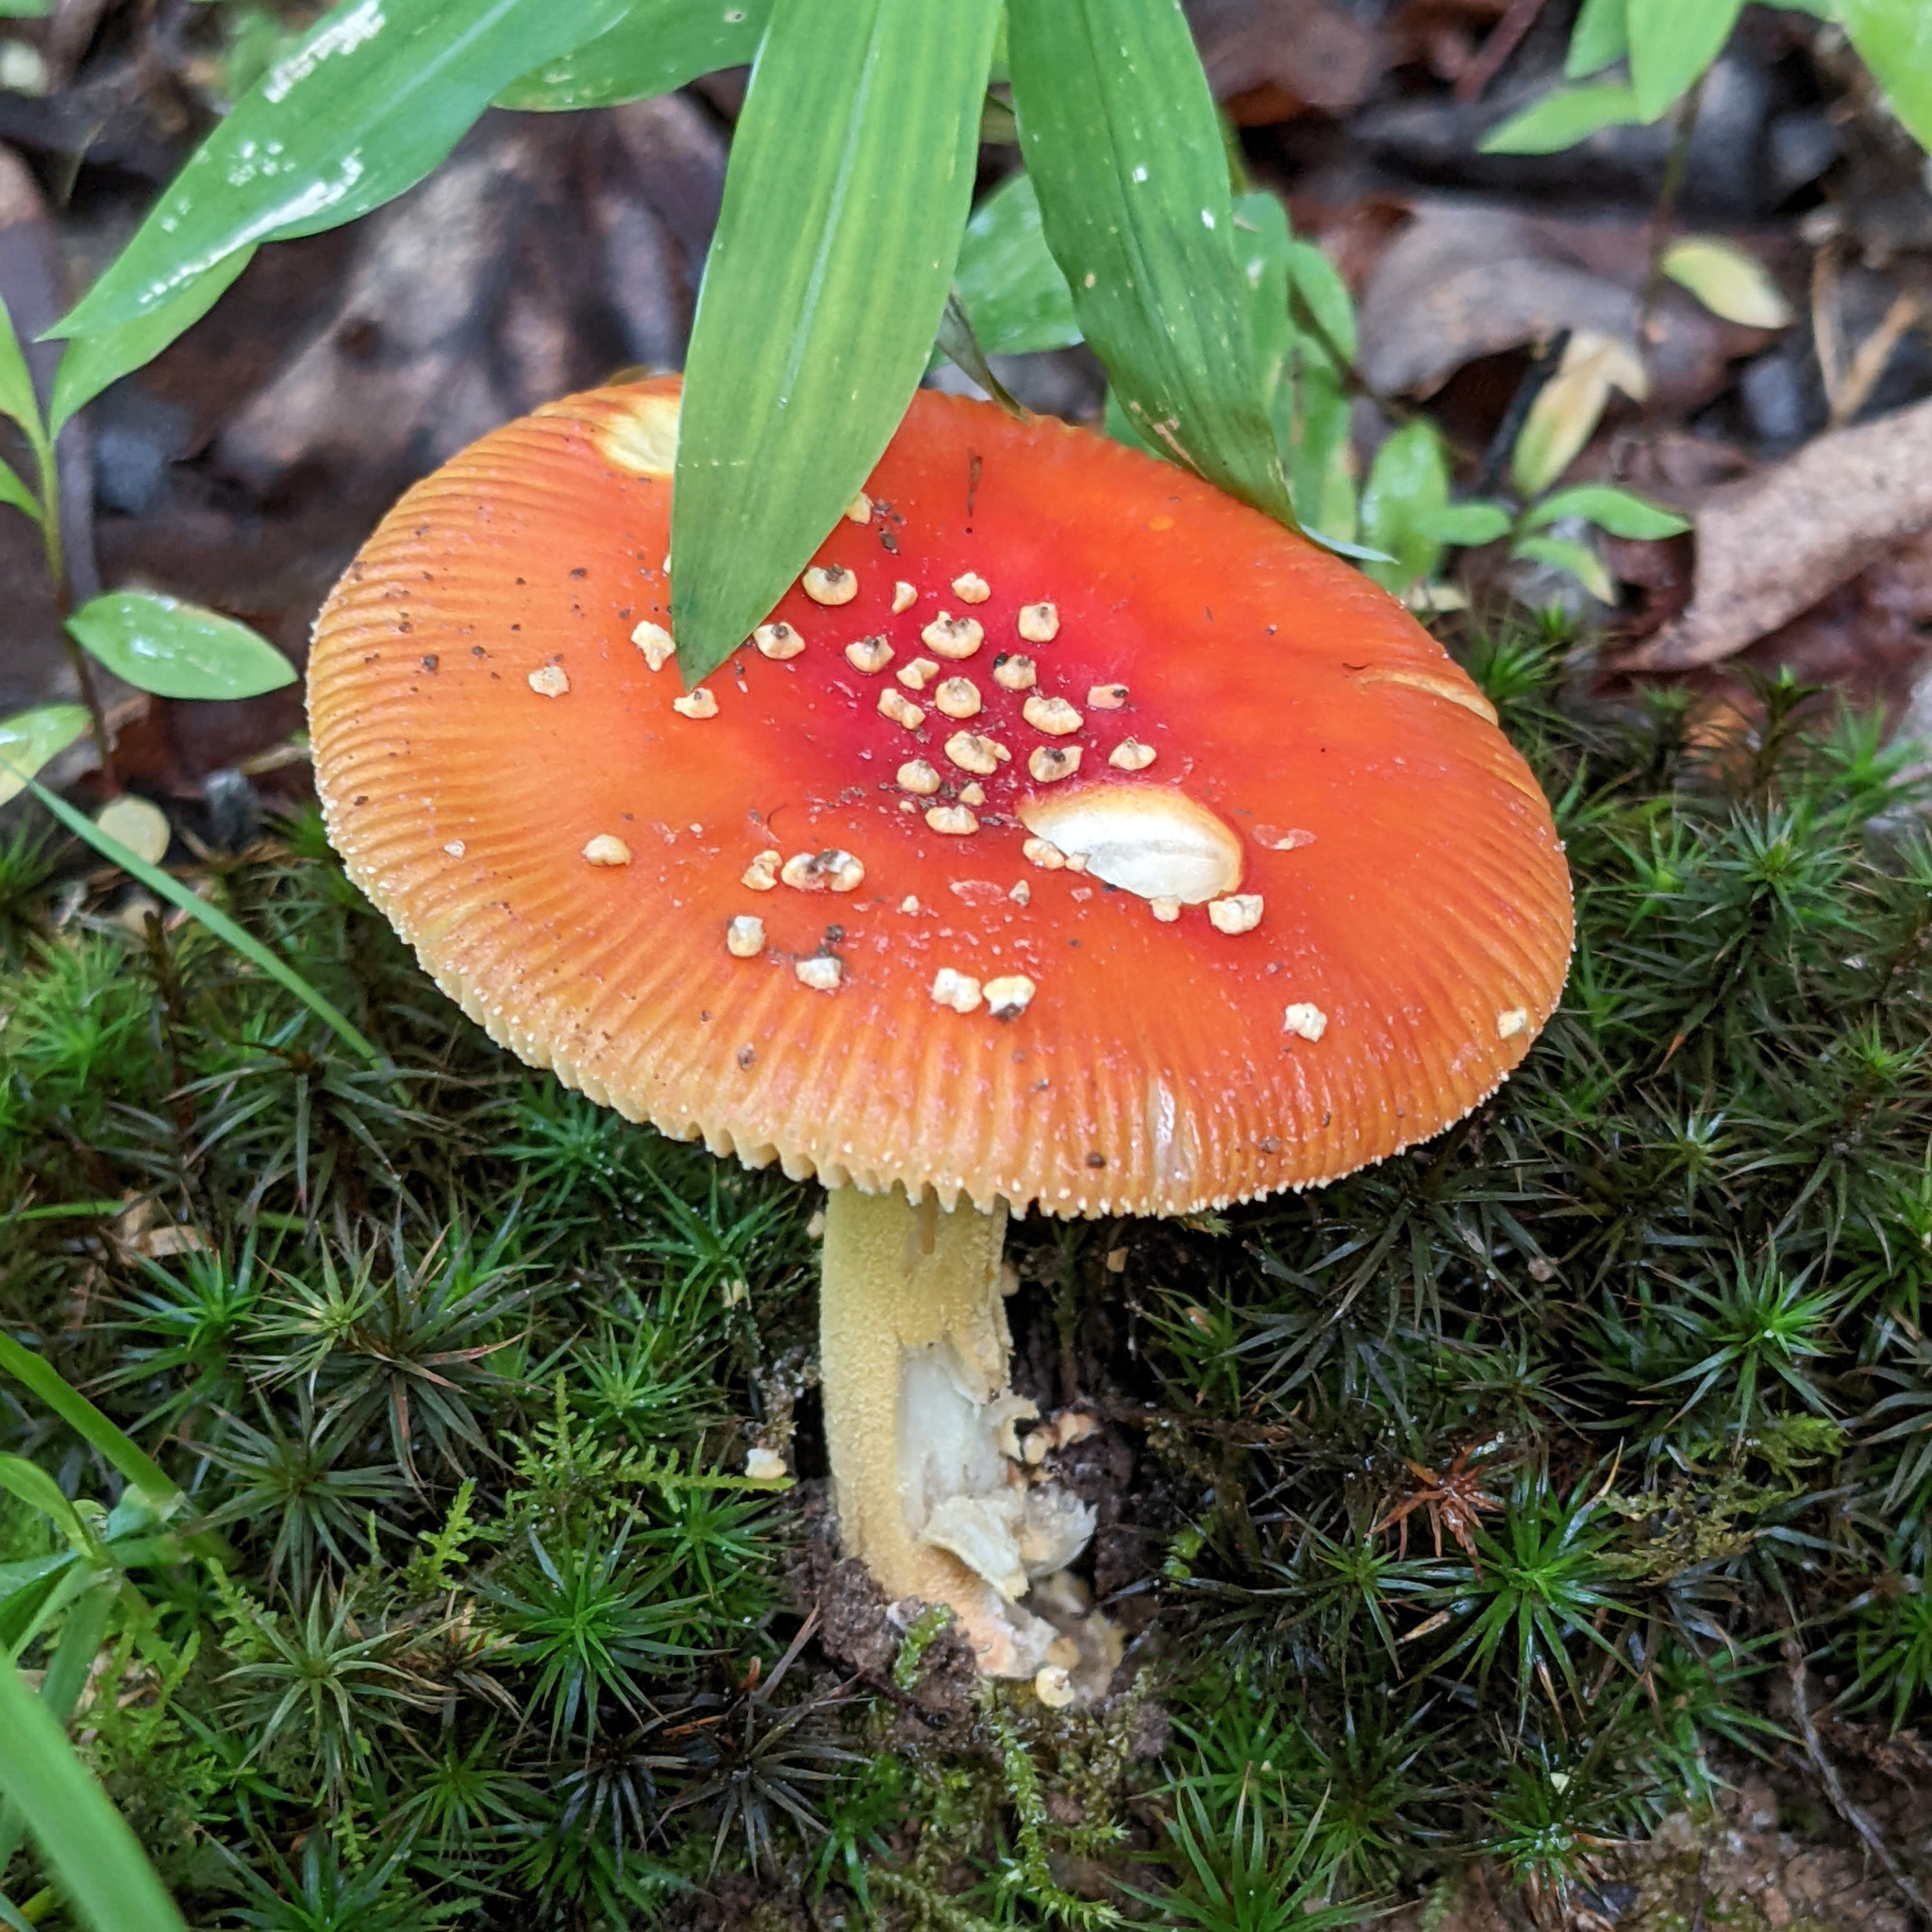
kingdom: Fungi
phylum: Basidiomycota
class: Agaricomycetes
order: Agaricales
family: Amanitaceae
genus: Amanita
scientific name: Amanita parcivolvata
